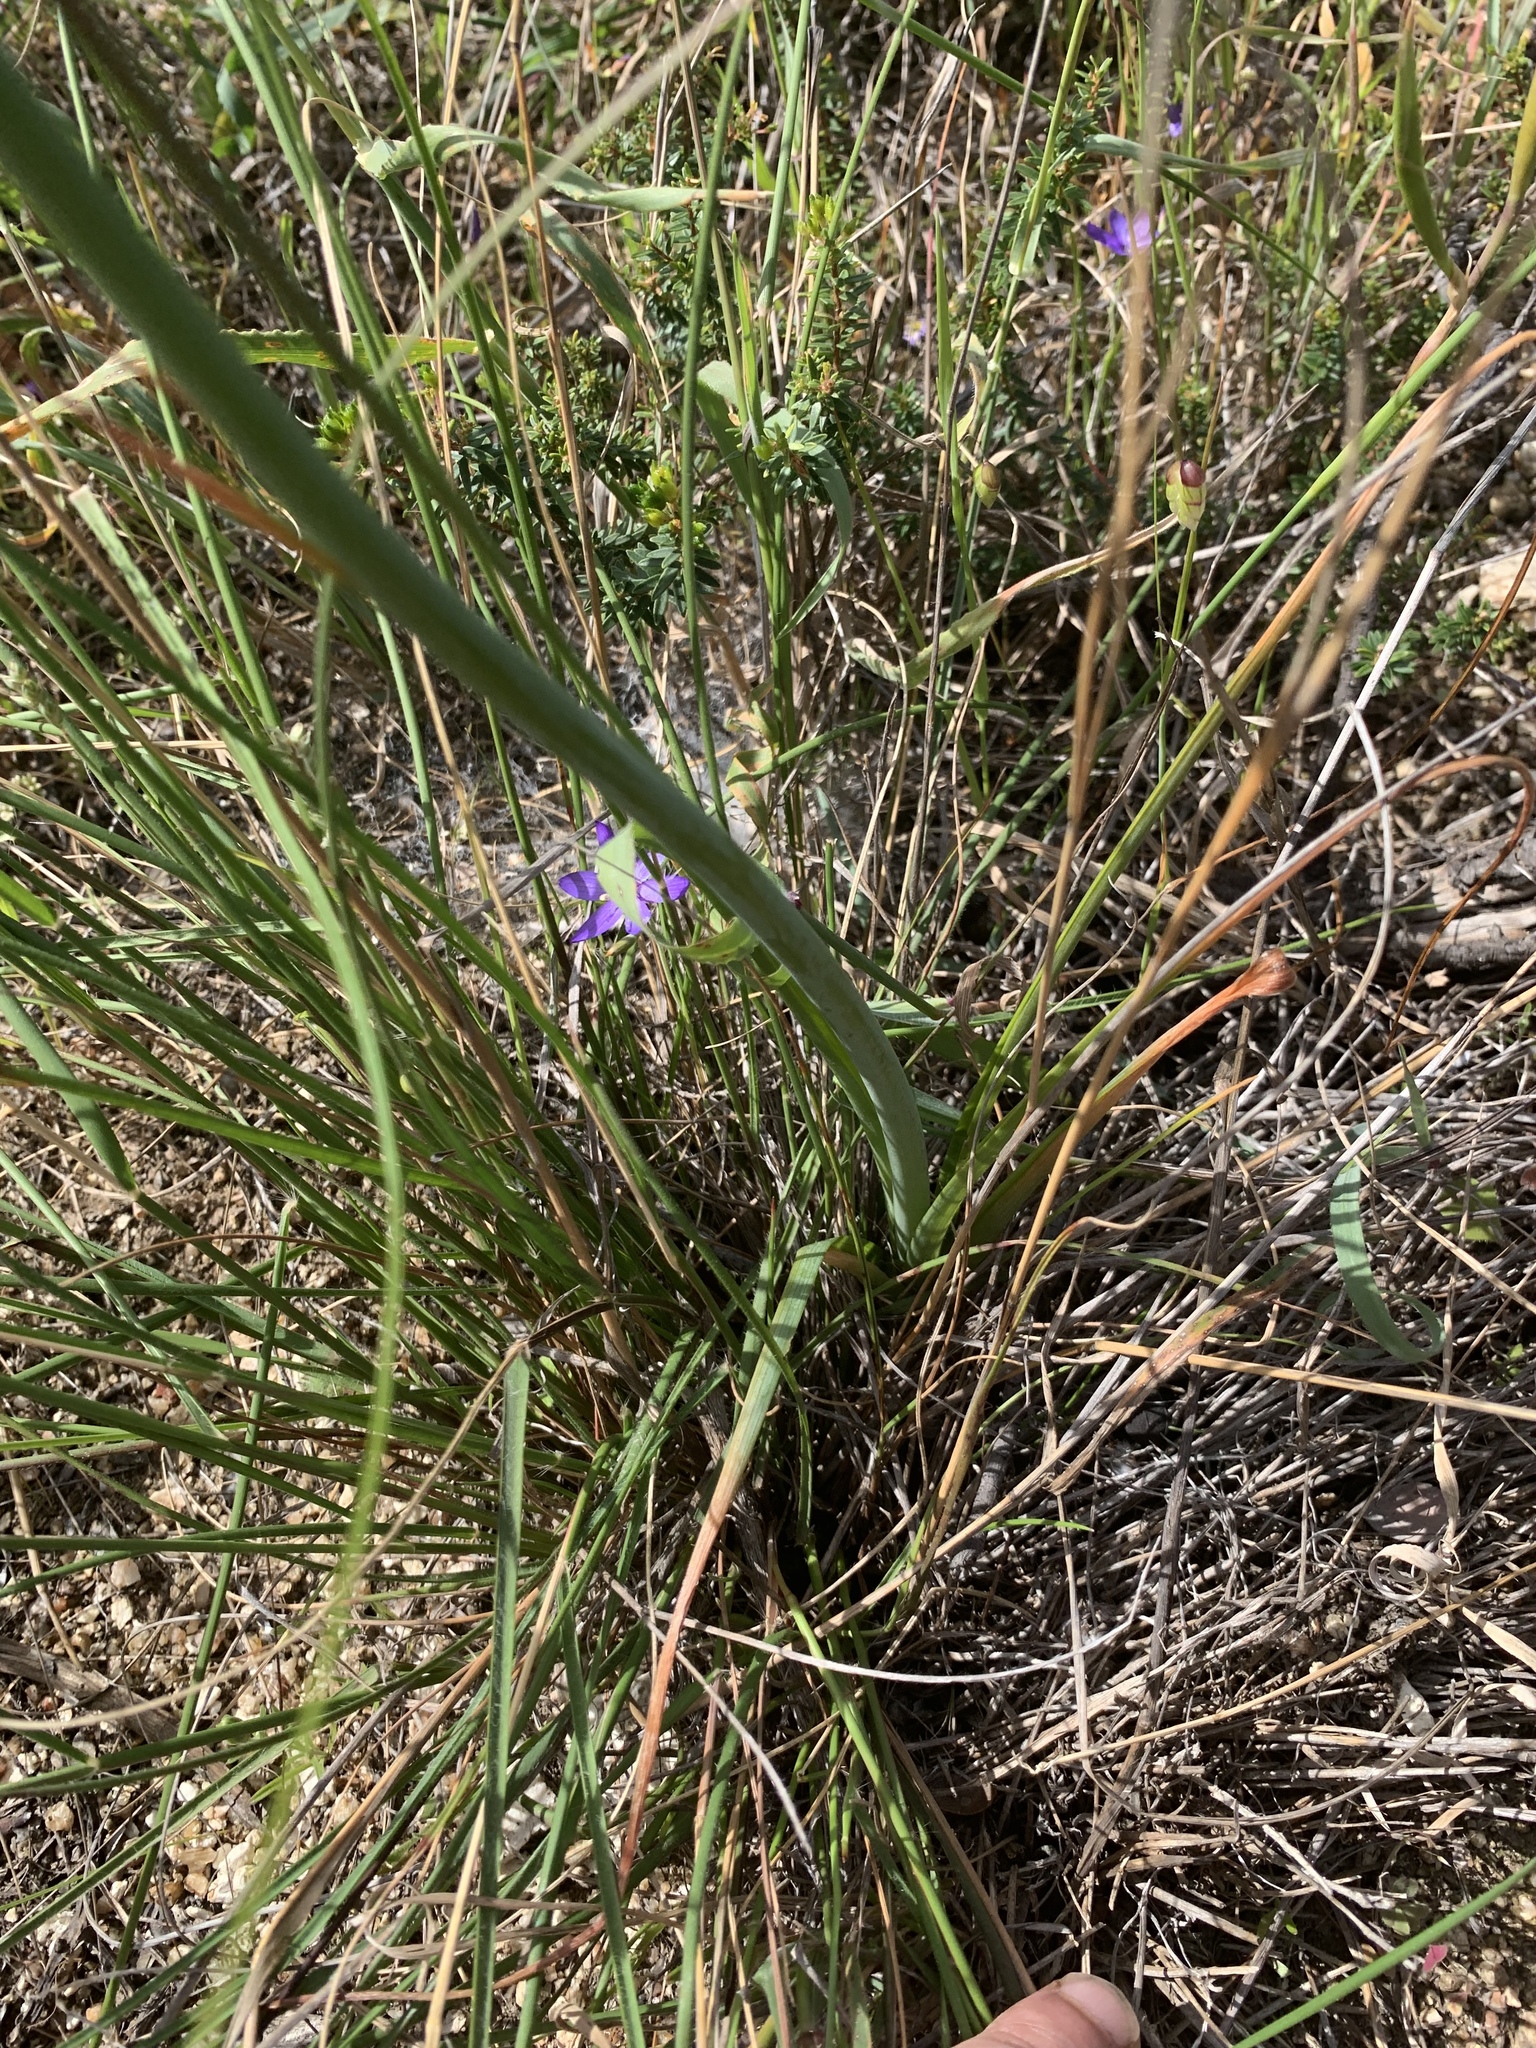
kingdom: Plantae
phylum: Tracheophyta
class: Liliopsida
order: Asparagales
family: Asparagaceae
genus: Albuca
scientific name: Albuca flaccida
